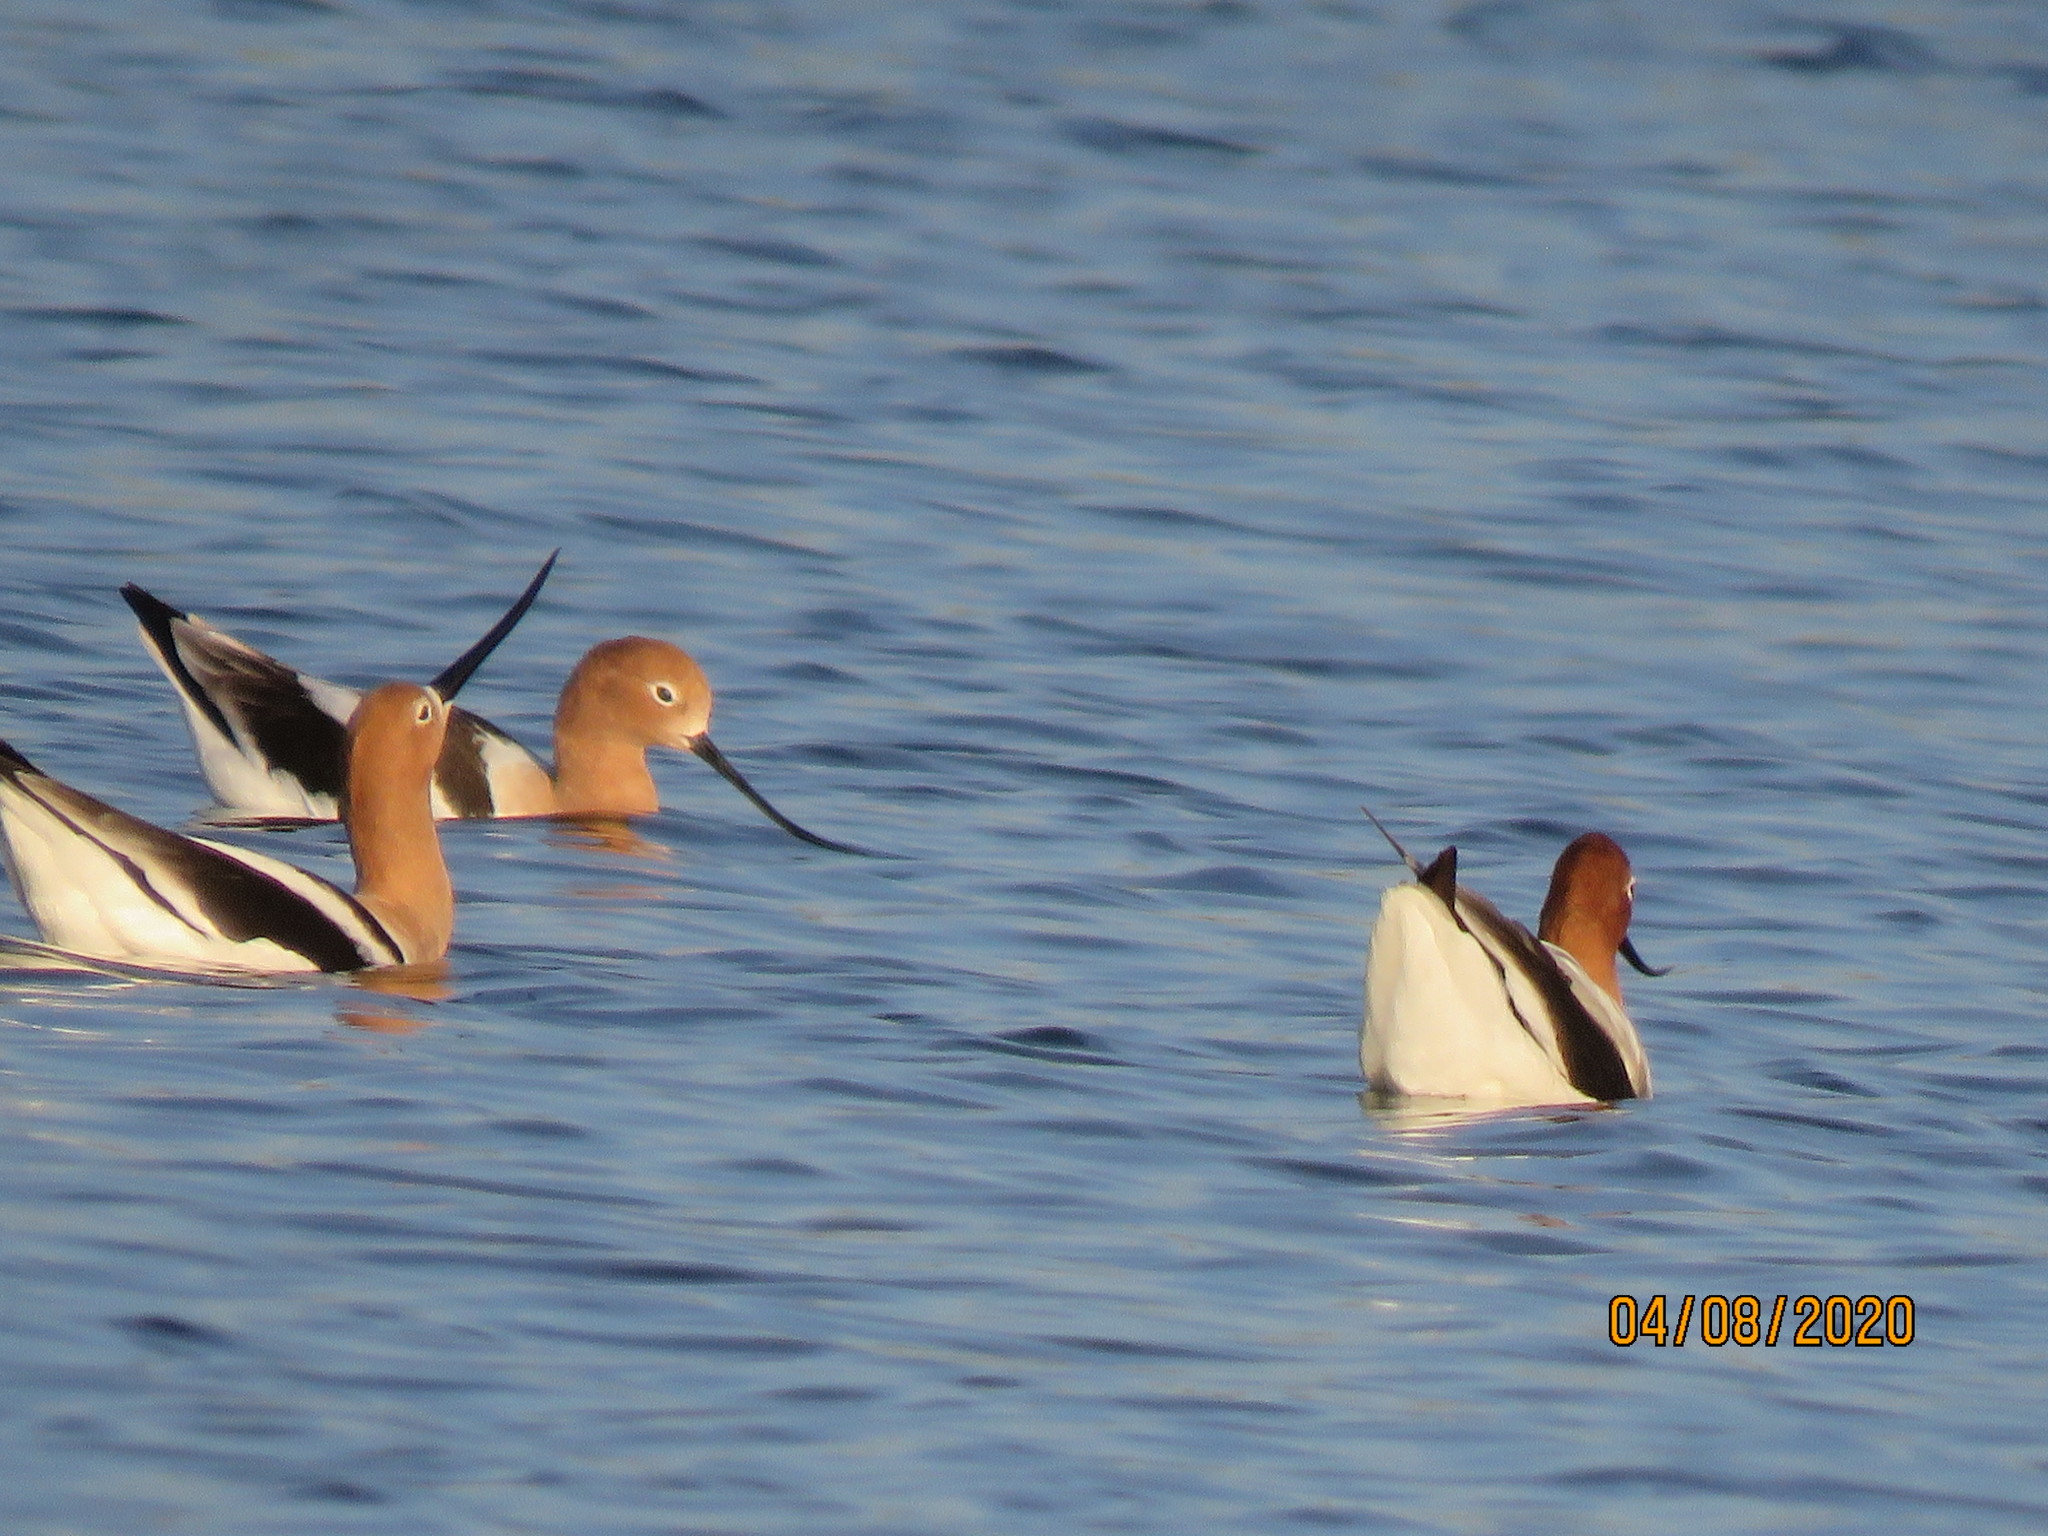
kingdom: Animalia
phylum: Chordata
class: Aves
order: Charadriiformes
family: Recurvirostridae
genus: Recurvirostra
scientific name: Recurvirostra americana
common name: American avocet
